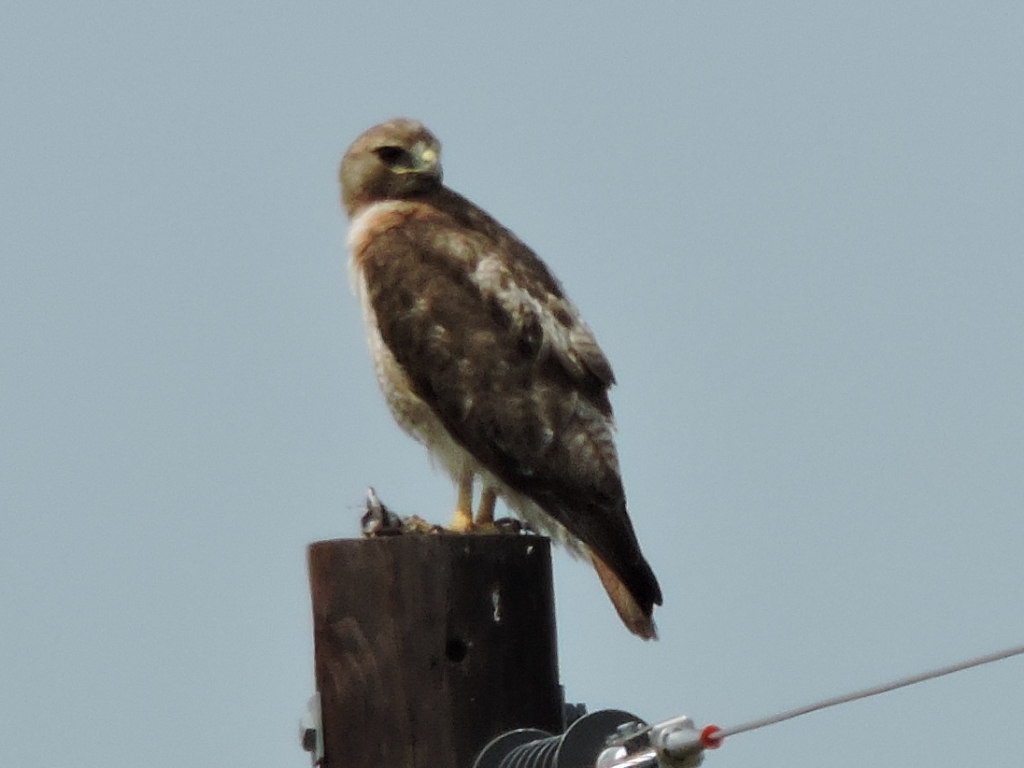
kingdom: Animalia
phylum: Chordata
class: Aves
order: Accipitriformes
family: Accipitridae
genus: Buteo
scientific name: Buteo jamaicensis
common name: Red-tailed hawk
